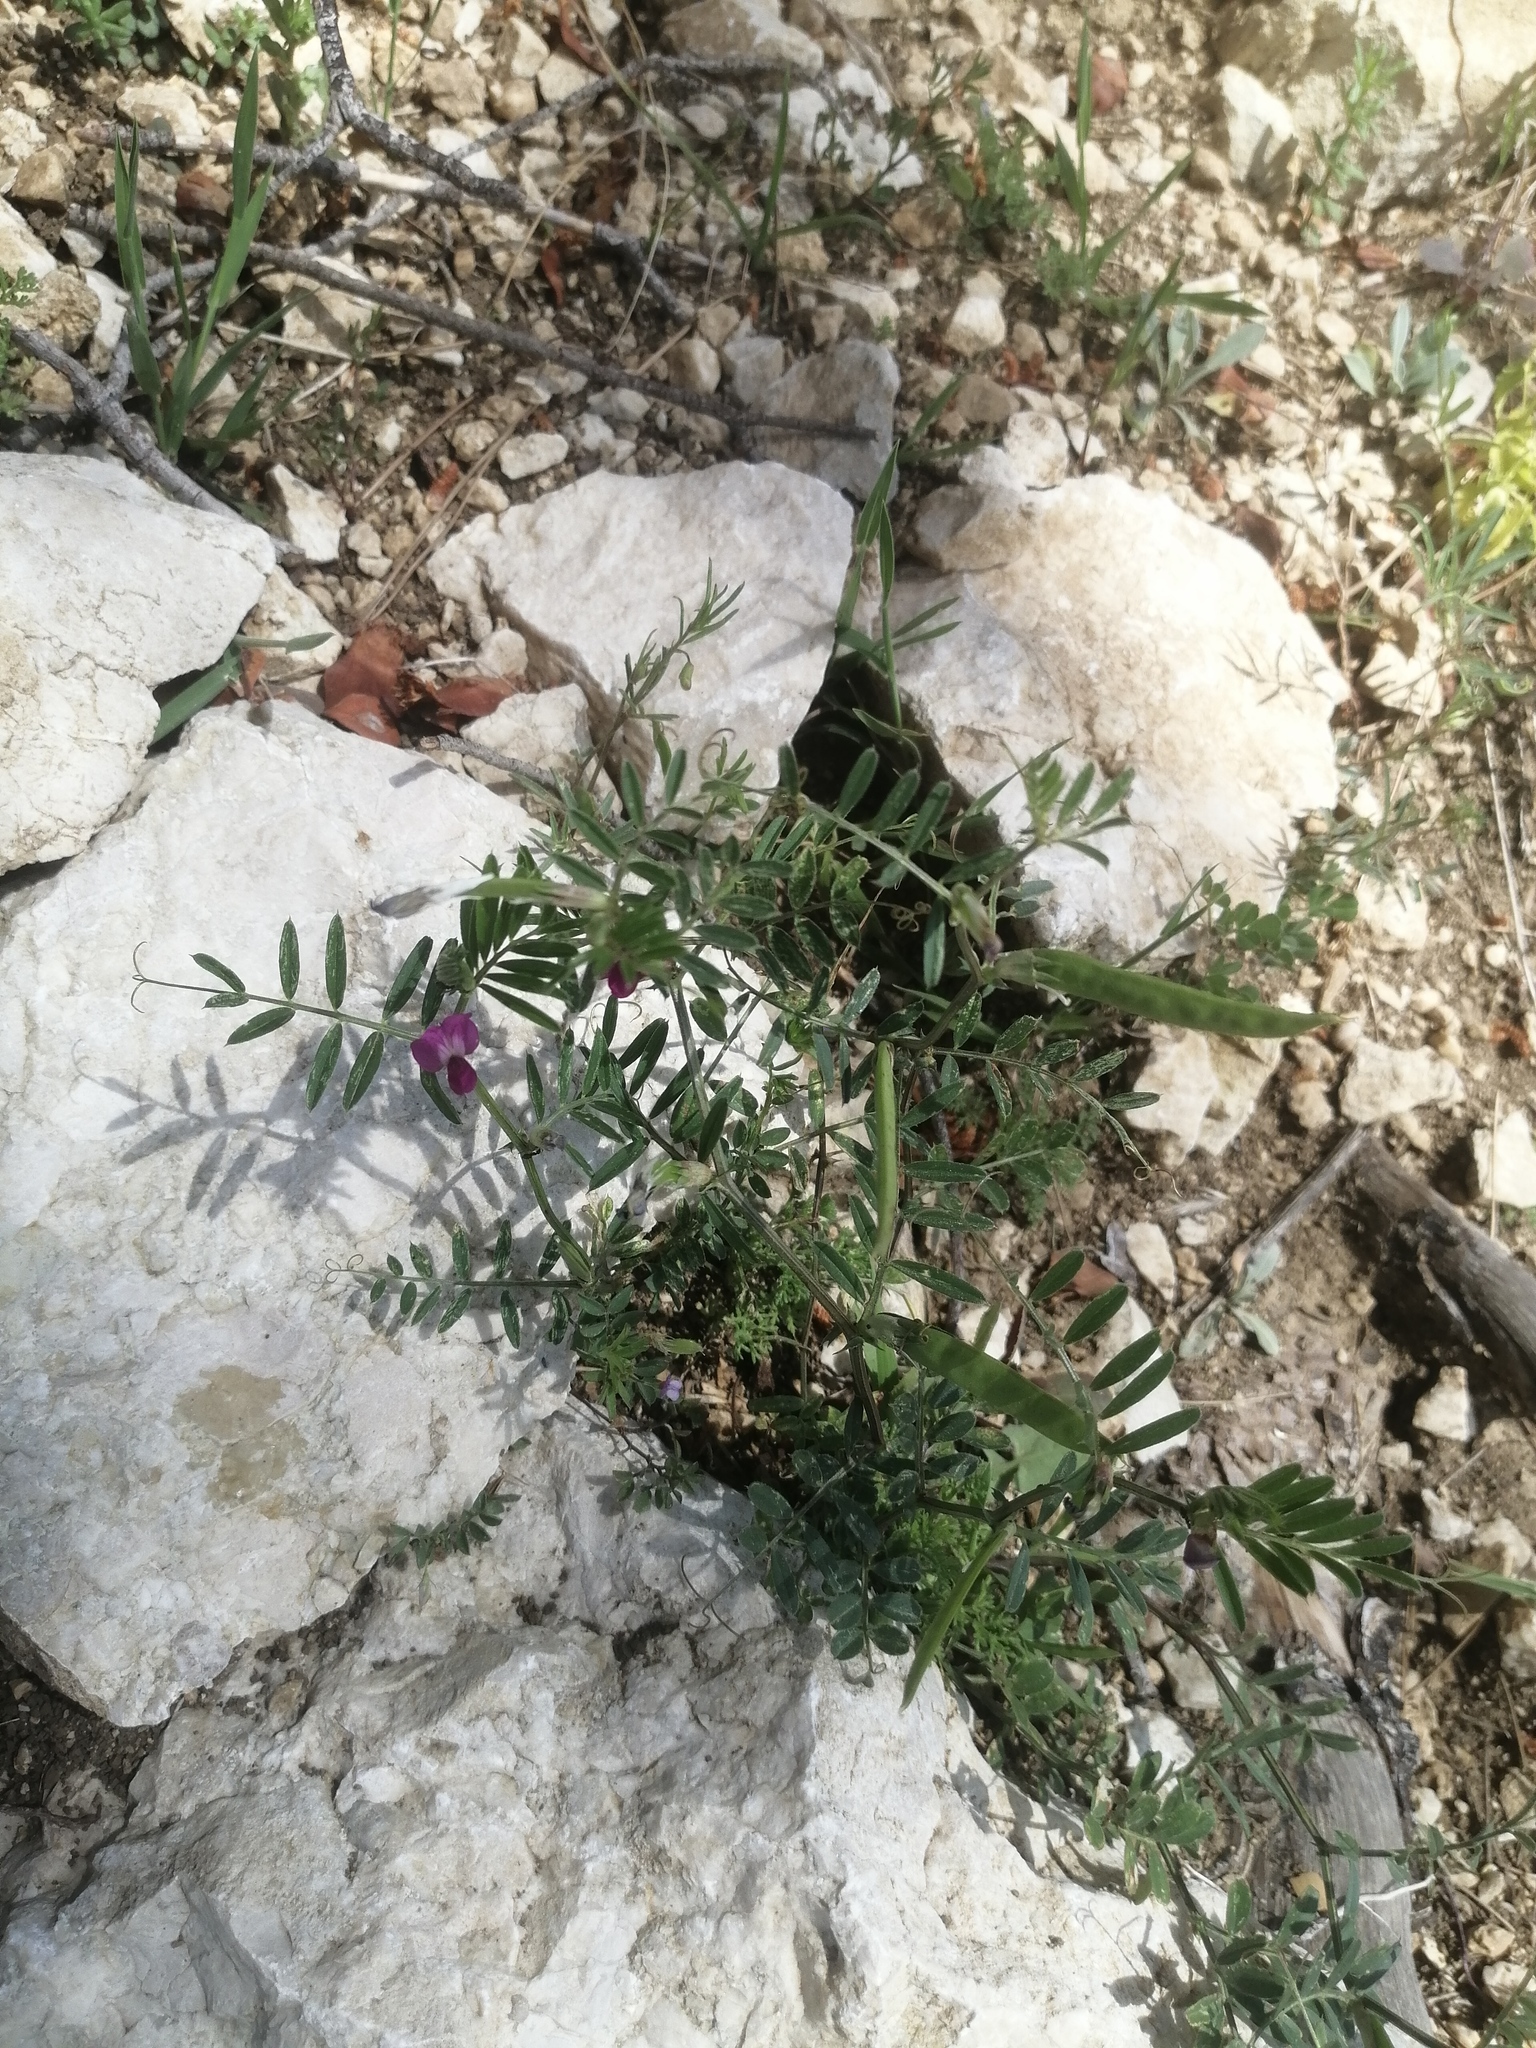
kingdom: Plantae
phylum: Tracheophyta
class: Magnoliopsida
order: Fabales
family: Fabaceae
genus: Vicia
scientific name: Vicia peregrina
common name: Broad-pod vetch
